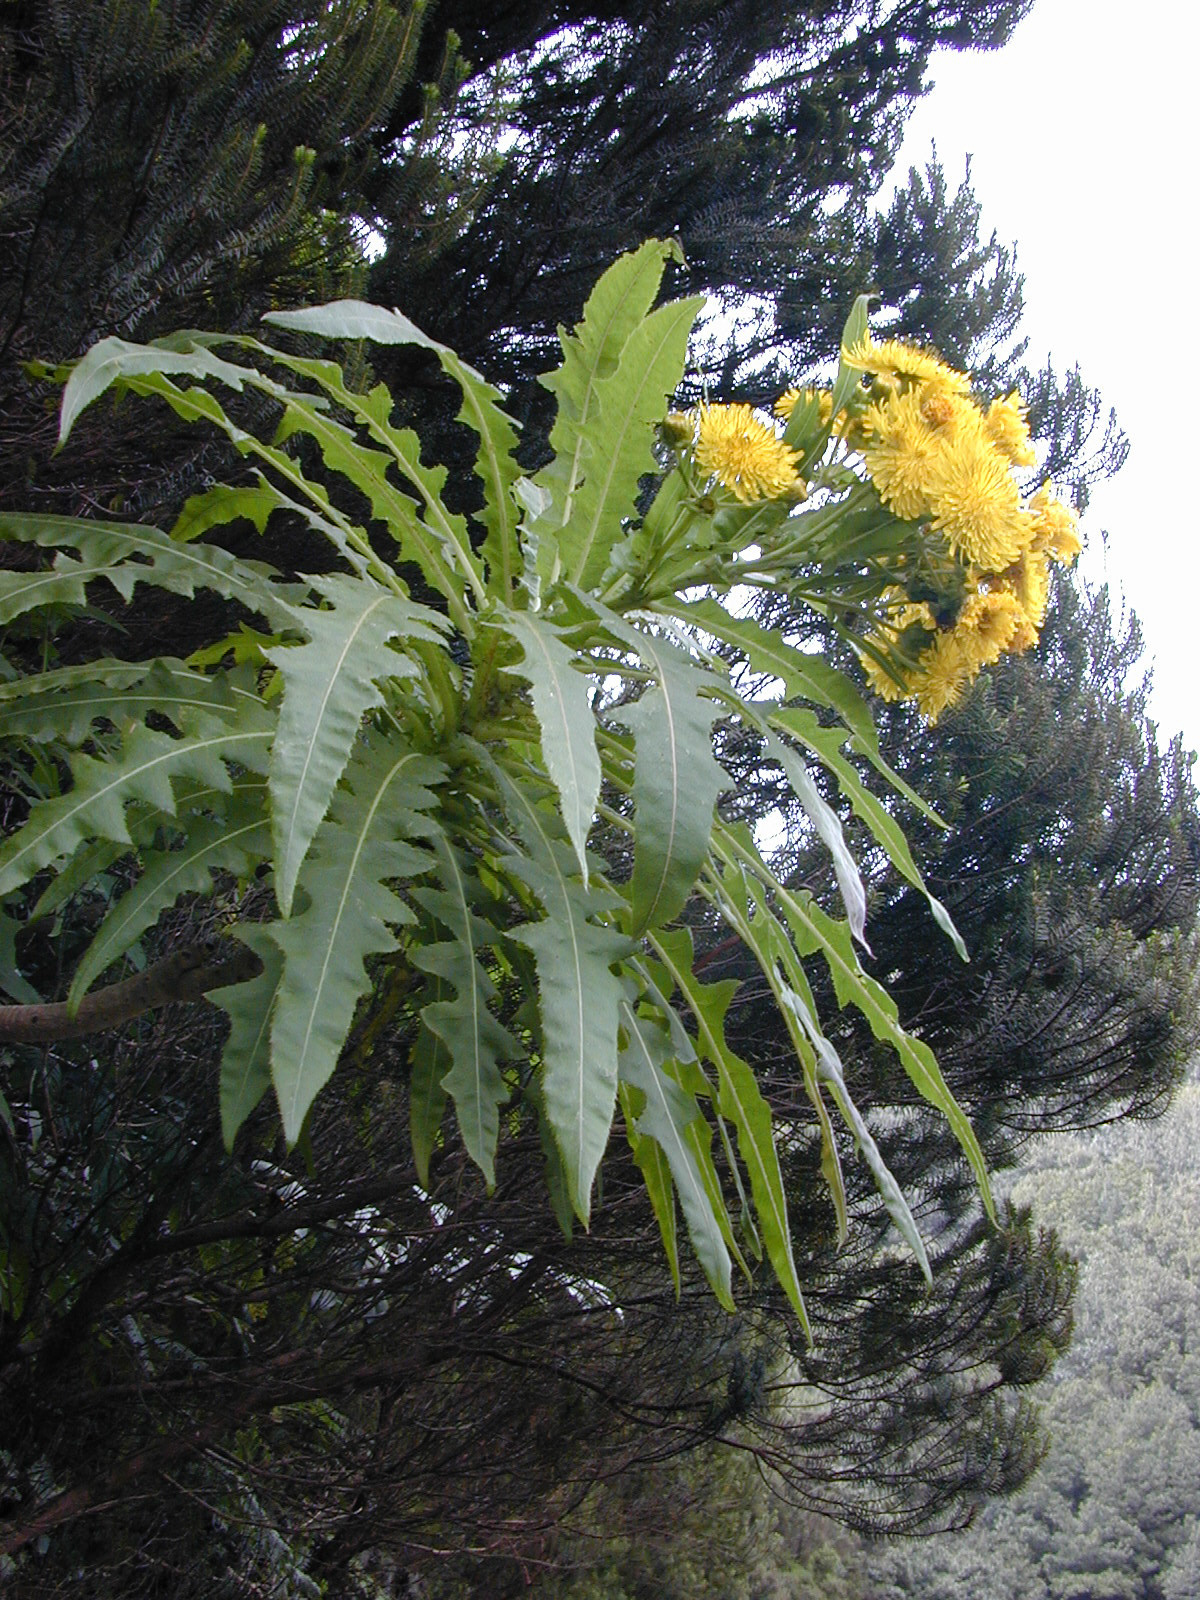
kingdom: Plantae
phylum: Tracheophyta
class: Magnoliopsida
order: Asterales
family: Asteraceae
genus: Sonchus
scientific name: Sonchus congestus
